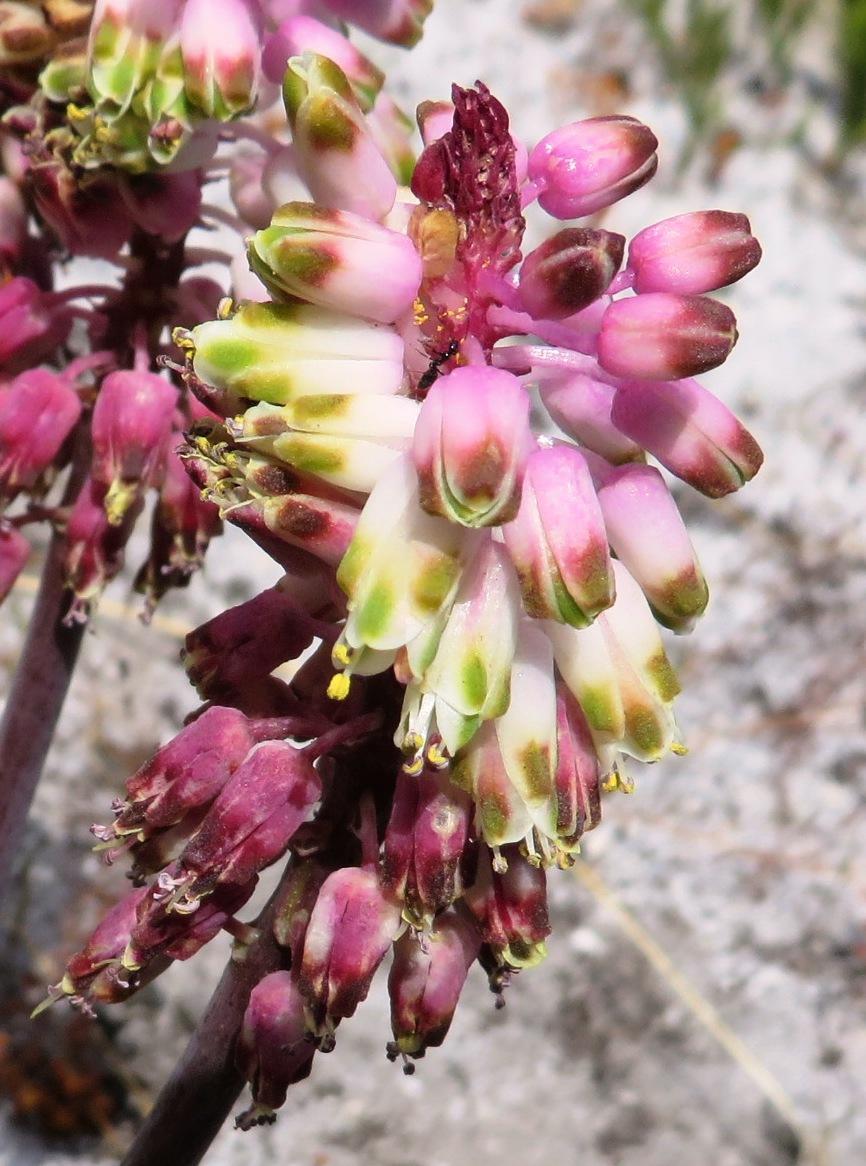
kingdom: Plantae
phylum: Tracheophyta
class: Liliopsida
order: Asparagales
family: Asparagaceae
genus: Lachenalia
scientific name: Lachenalia montana
